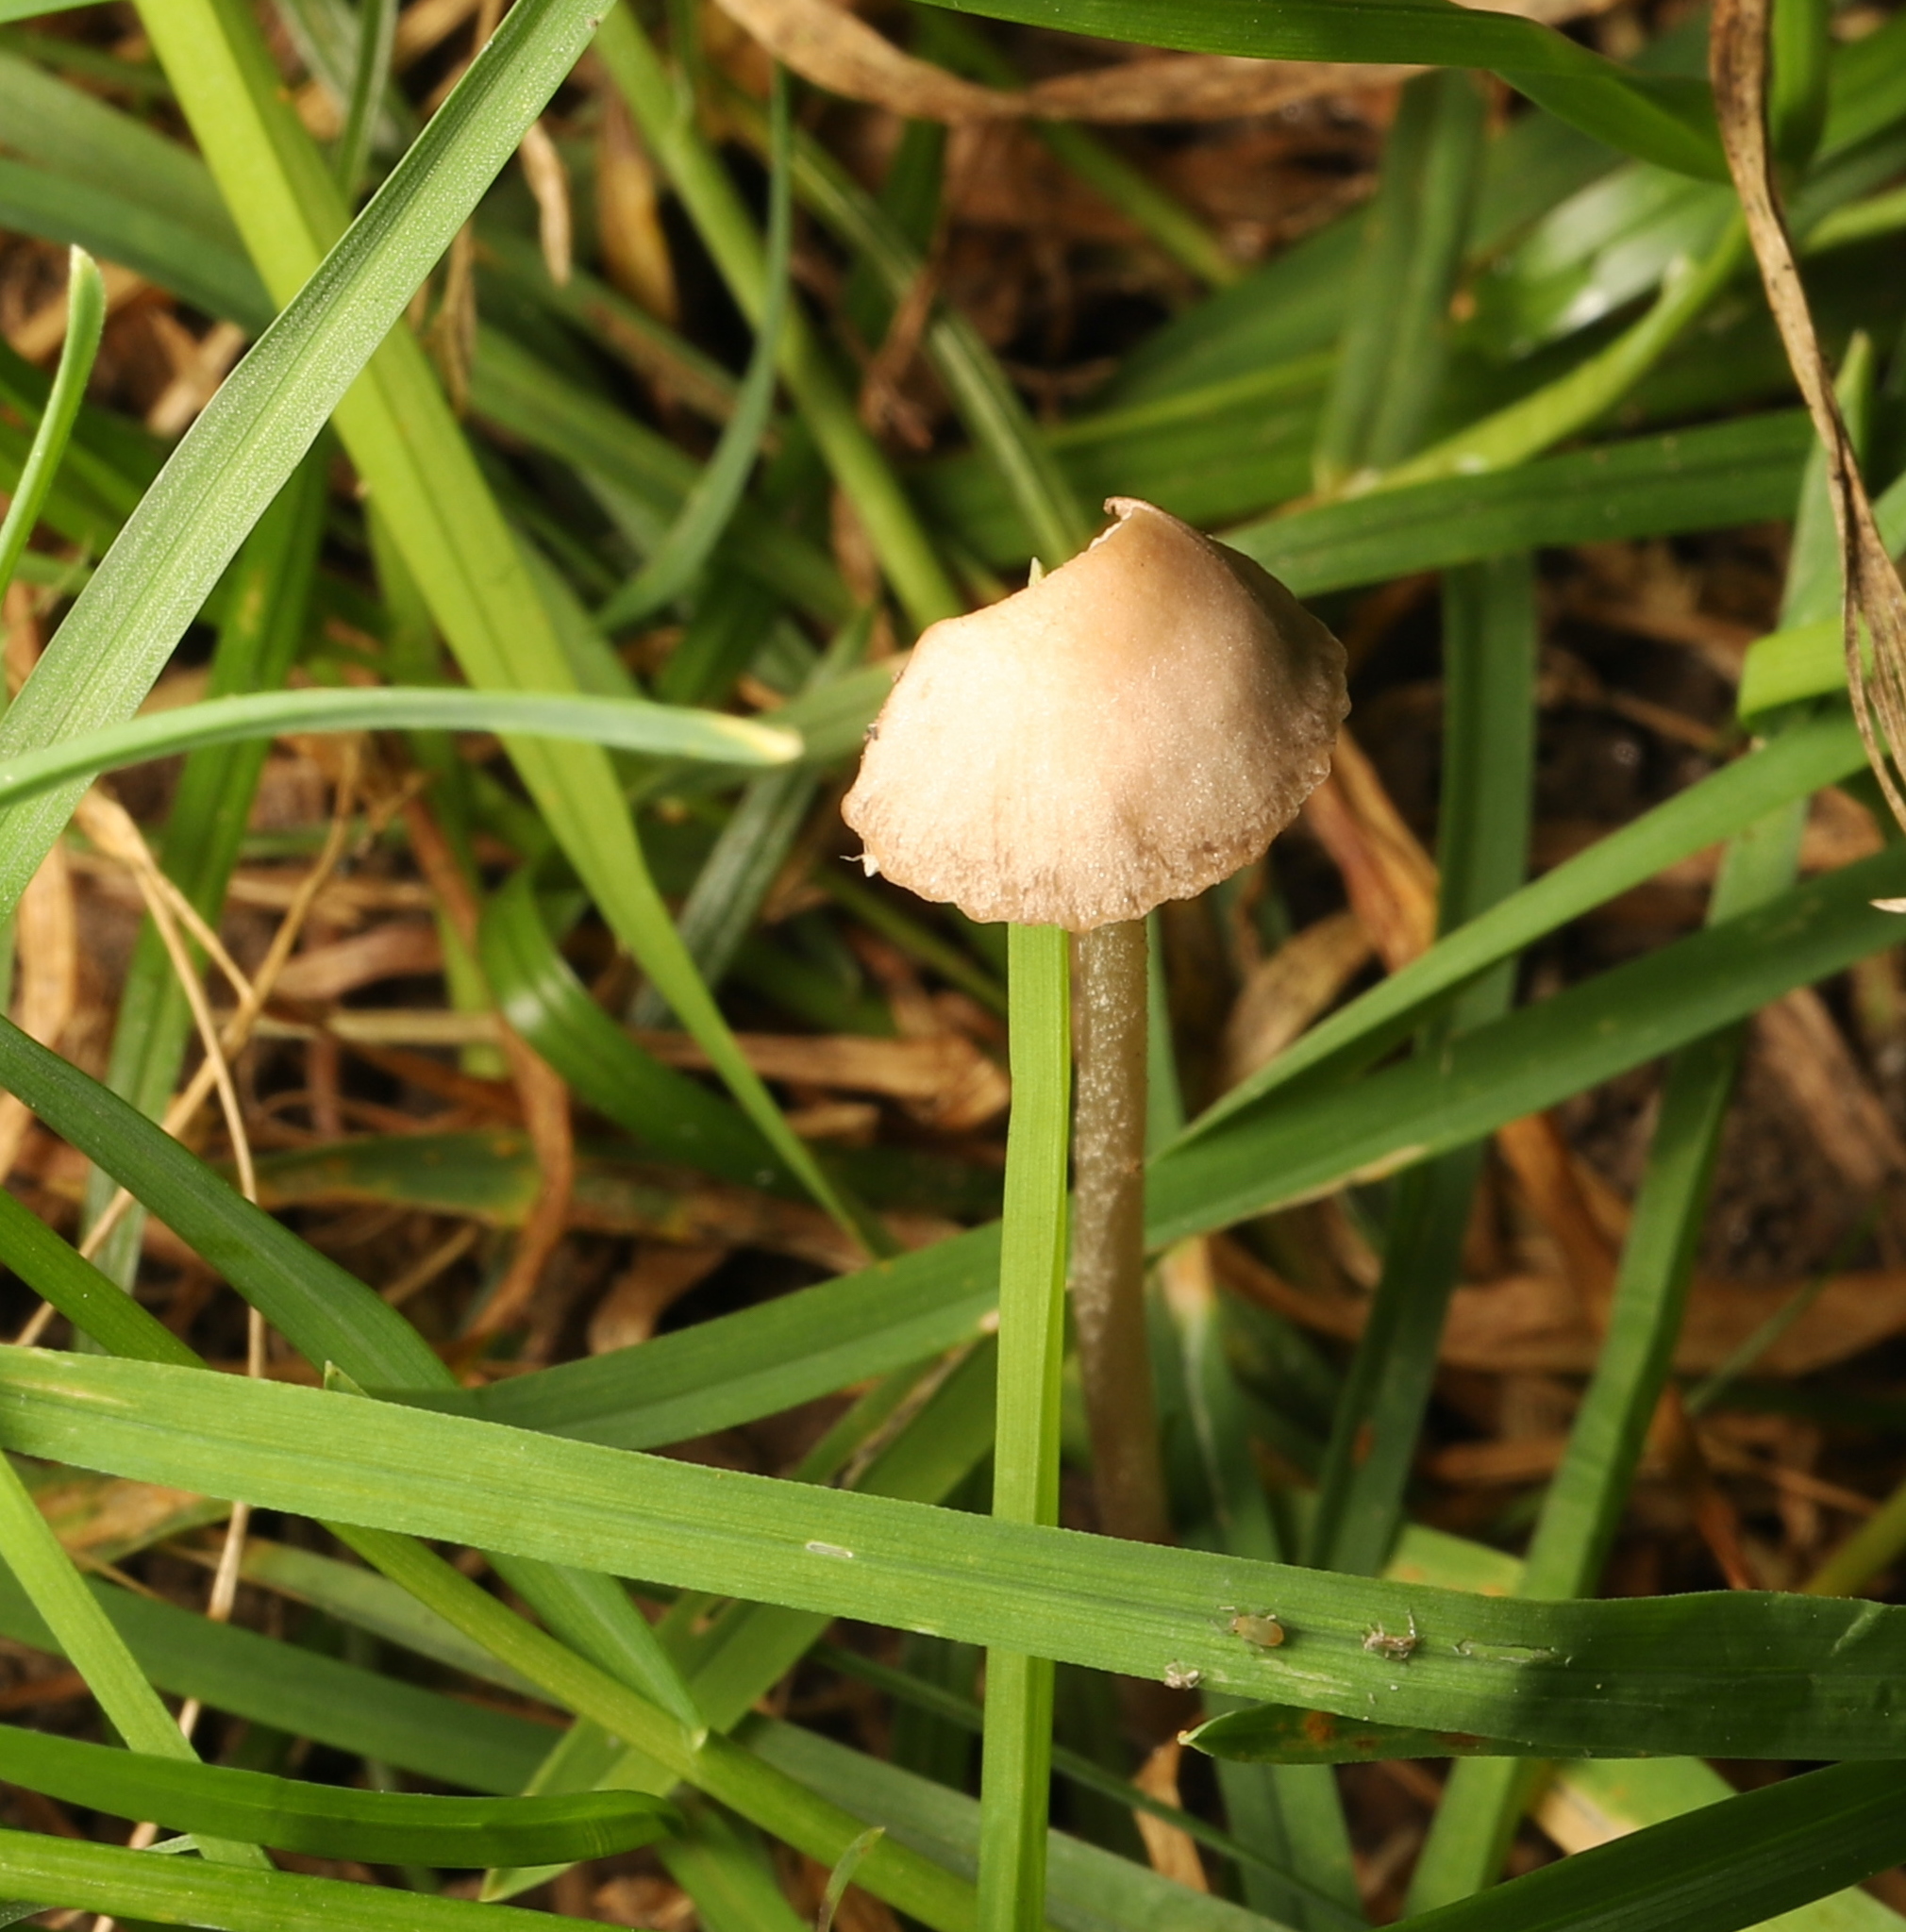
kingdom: Fungi
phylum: Basidiomycota
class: Agaricomycetes
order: Agaricales
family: Bolbitiaceae
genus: Panaeolina
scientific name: Panaeolina foenisecii
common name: Brown hay cap
